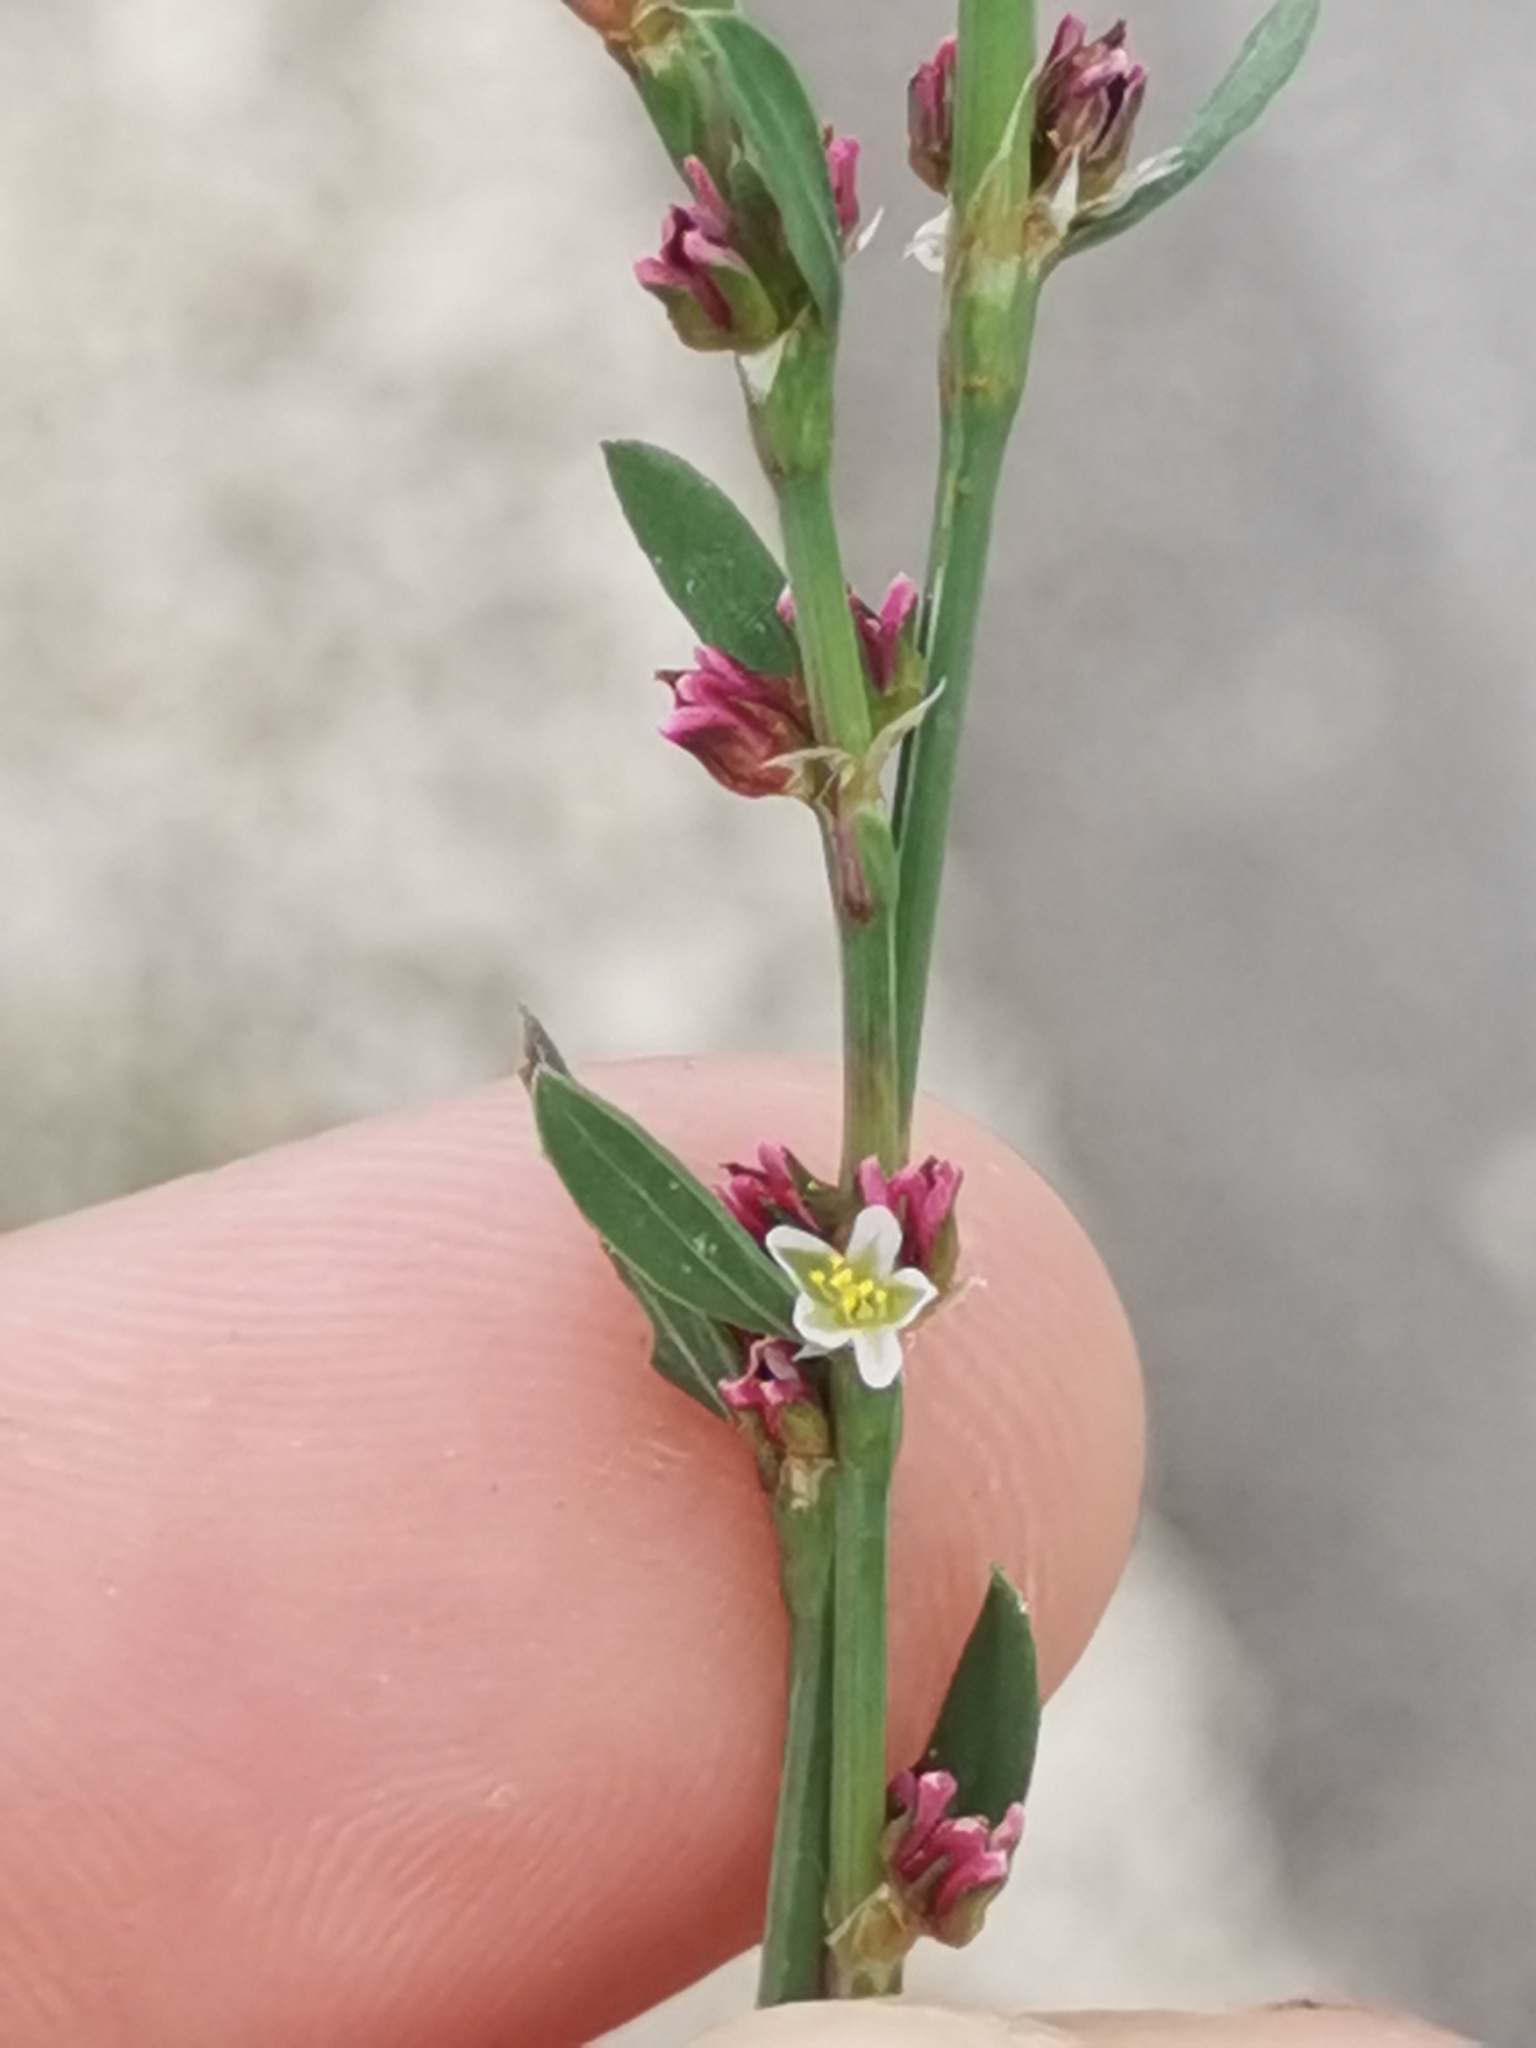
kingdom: Plantae
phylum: Tracheophyta
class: Magnoliopsida
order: Caryophyllales
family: Polygonaceae
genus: Polygonum
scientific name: Polygonum arenastrum
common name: Equal-leaved knotgrass
